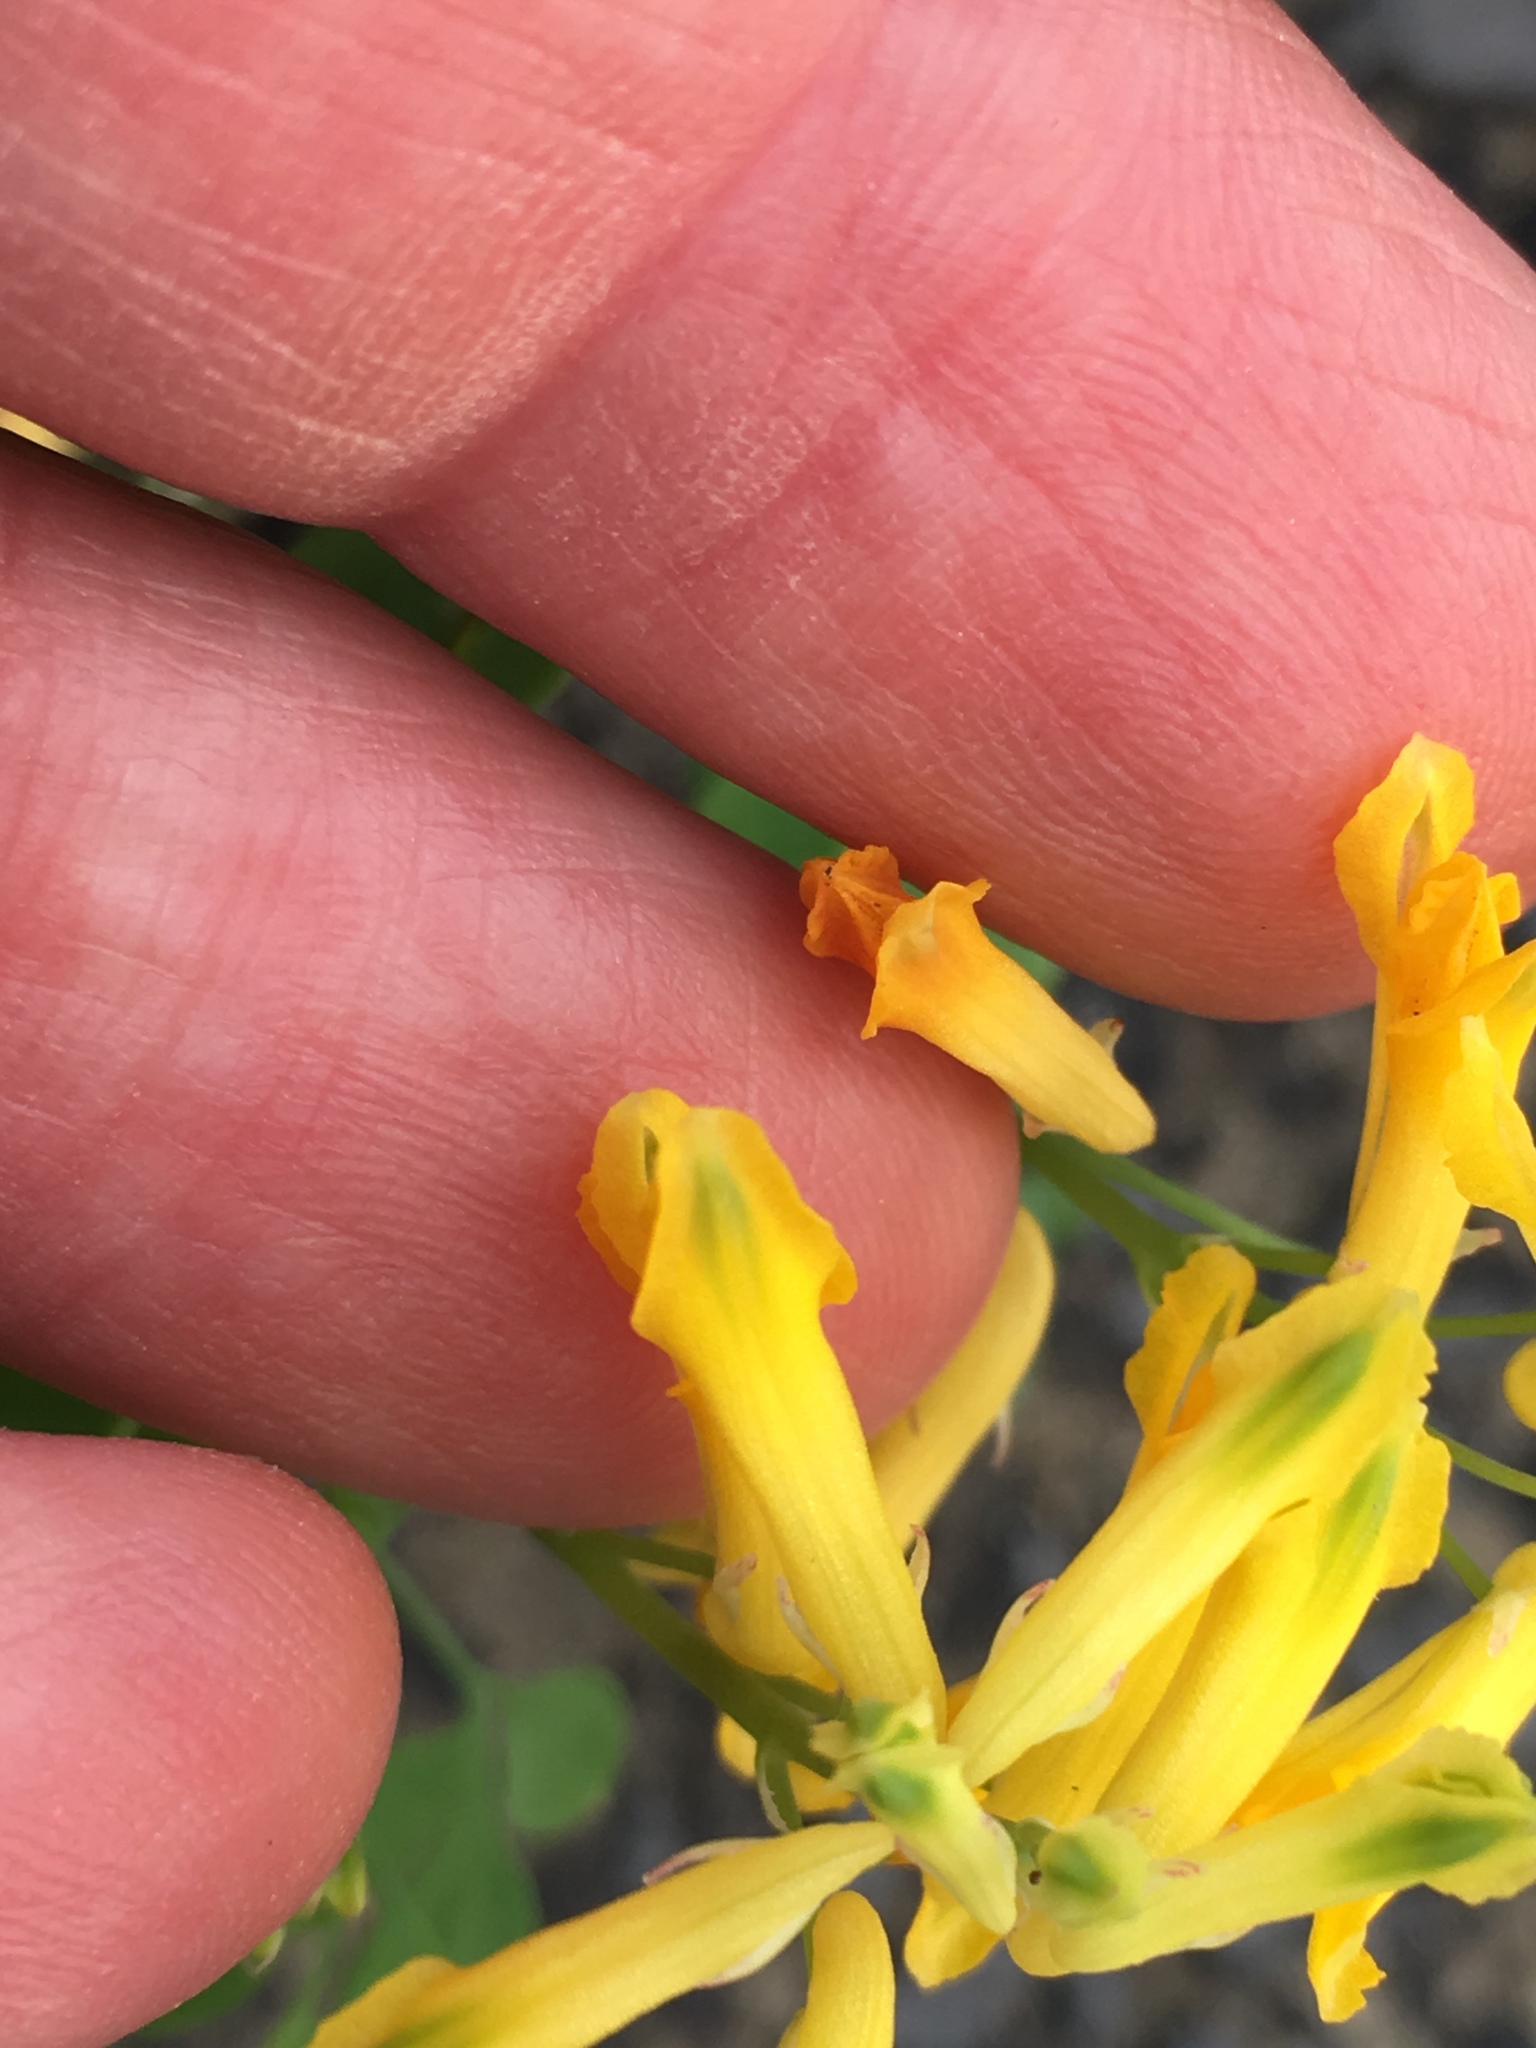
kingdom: Plantae
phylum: Tracheophyta
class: Magnoliopsida
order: Ranunculales
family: Papaveraceae
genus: Pseudofumaria
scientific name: Pseudofumaria lutea
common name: Yellow corydalis
